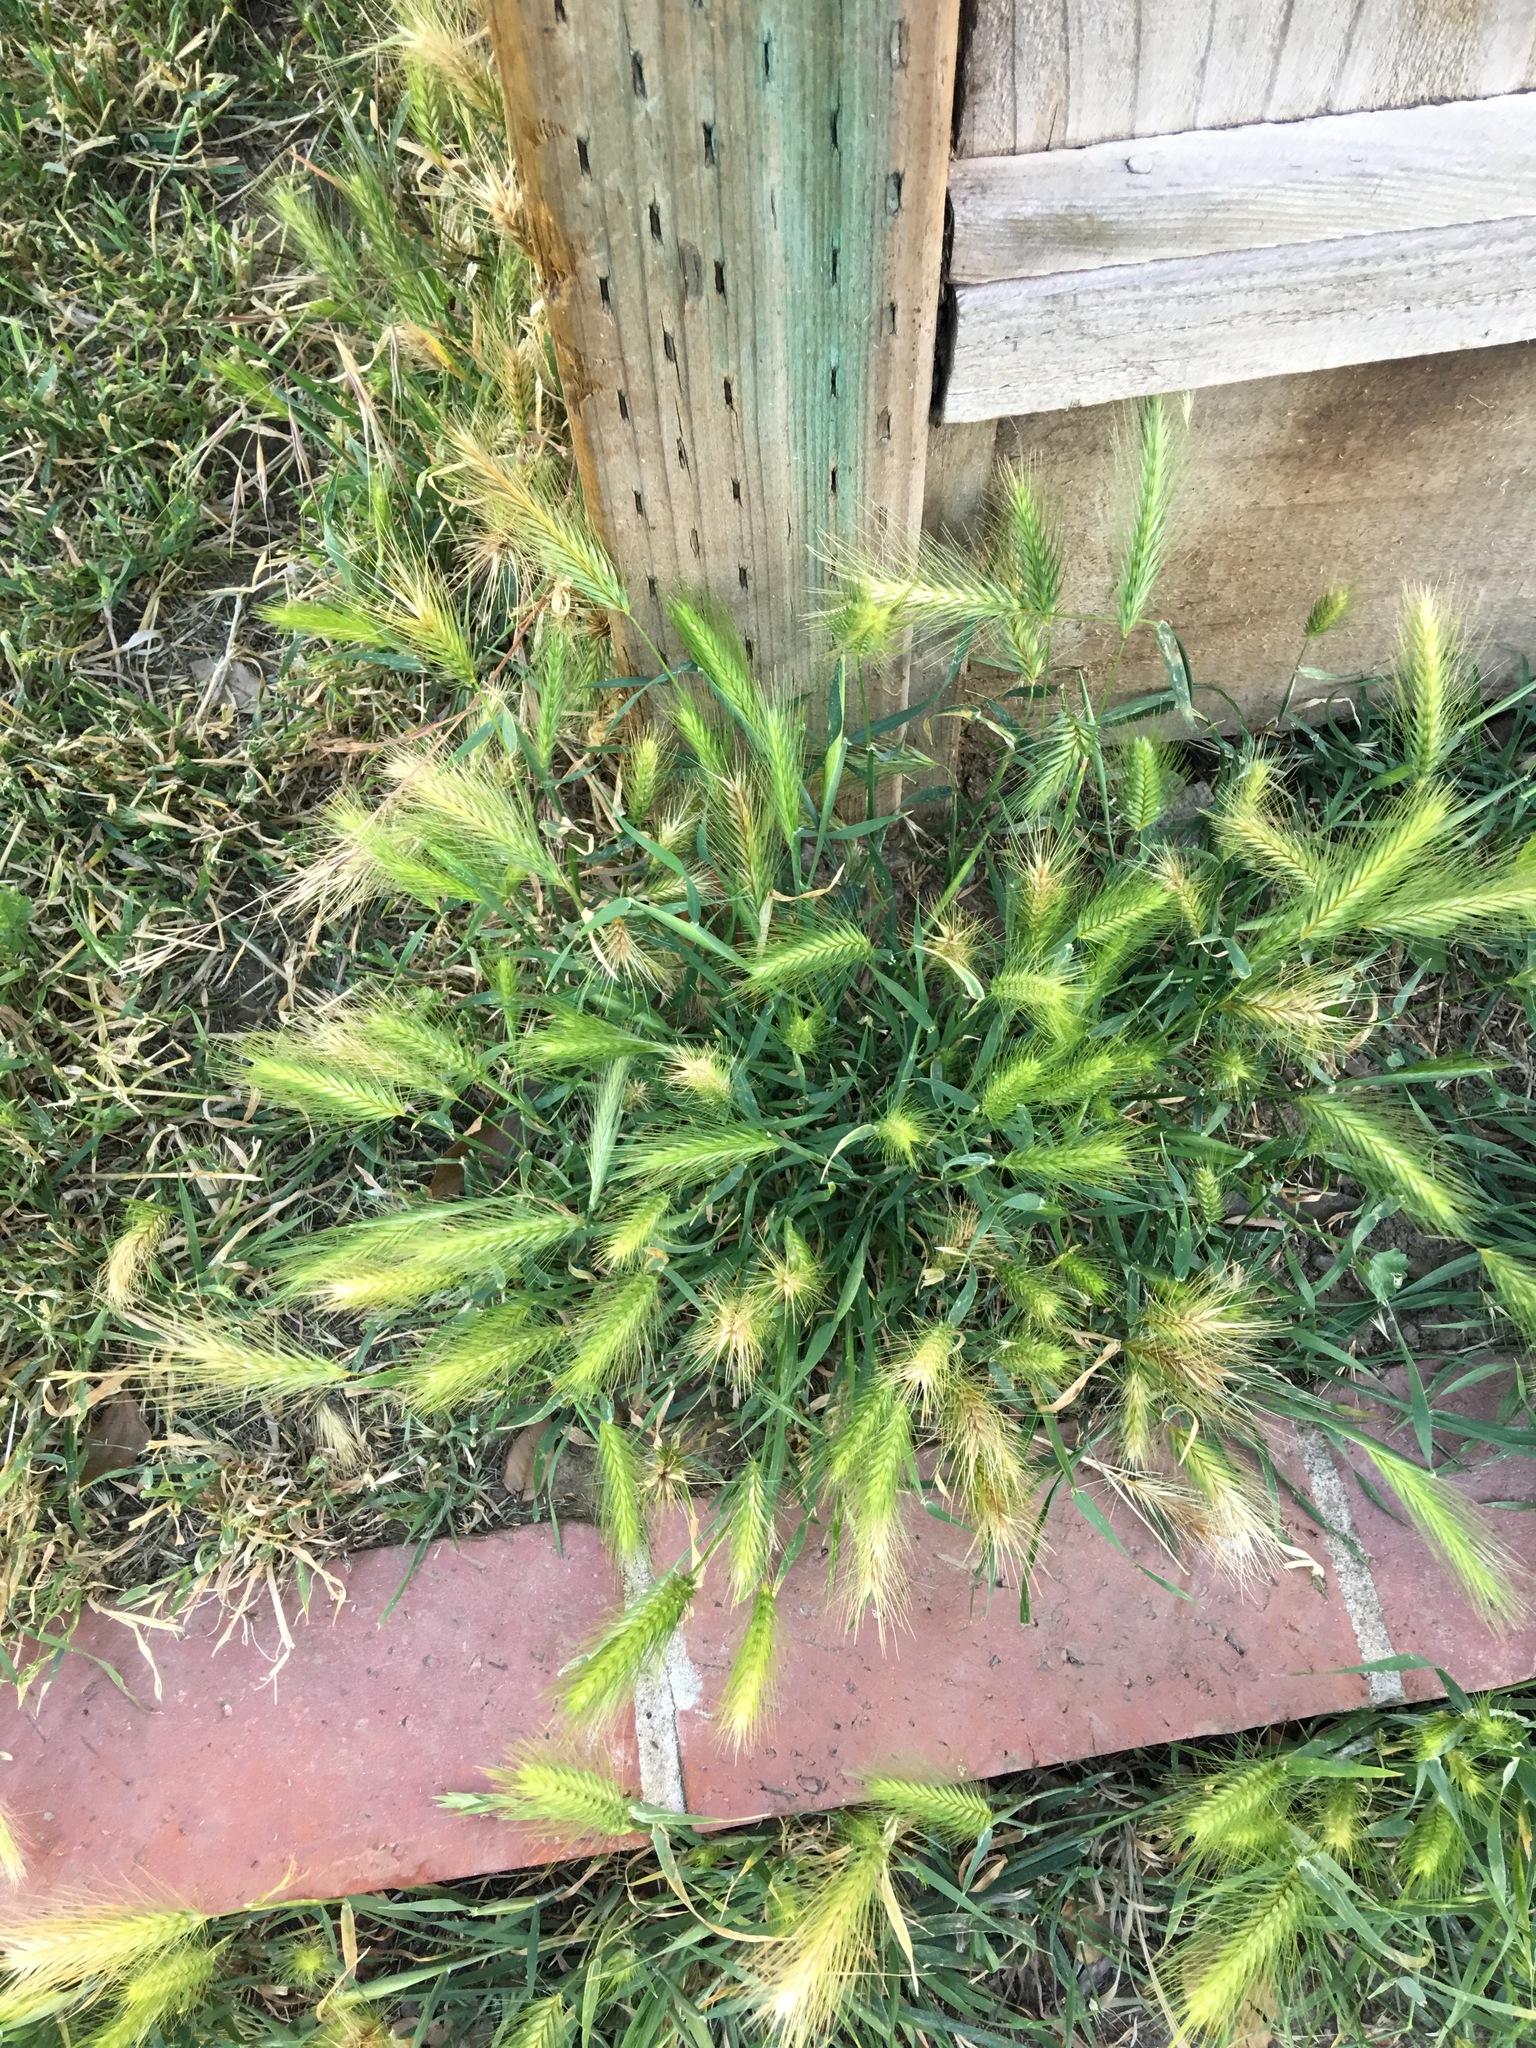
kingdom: Plantae
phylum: Tracheophyta
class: Liliopsida
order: Poales
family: Poaceae
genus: Hordeum
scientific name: Hordeum murinum
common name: Wall barley
